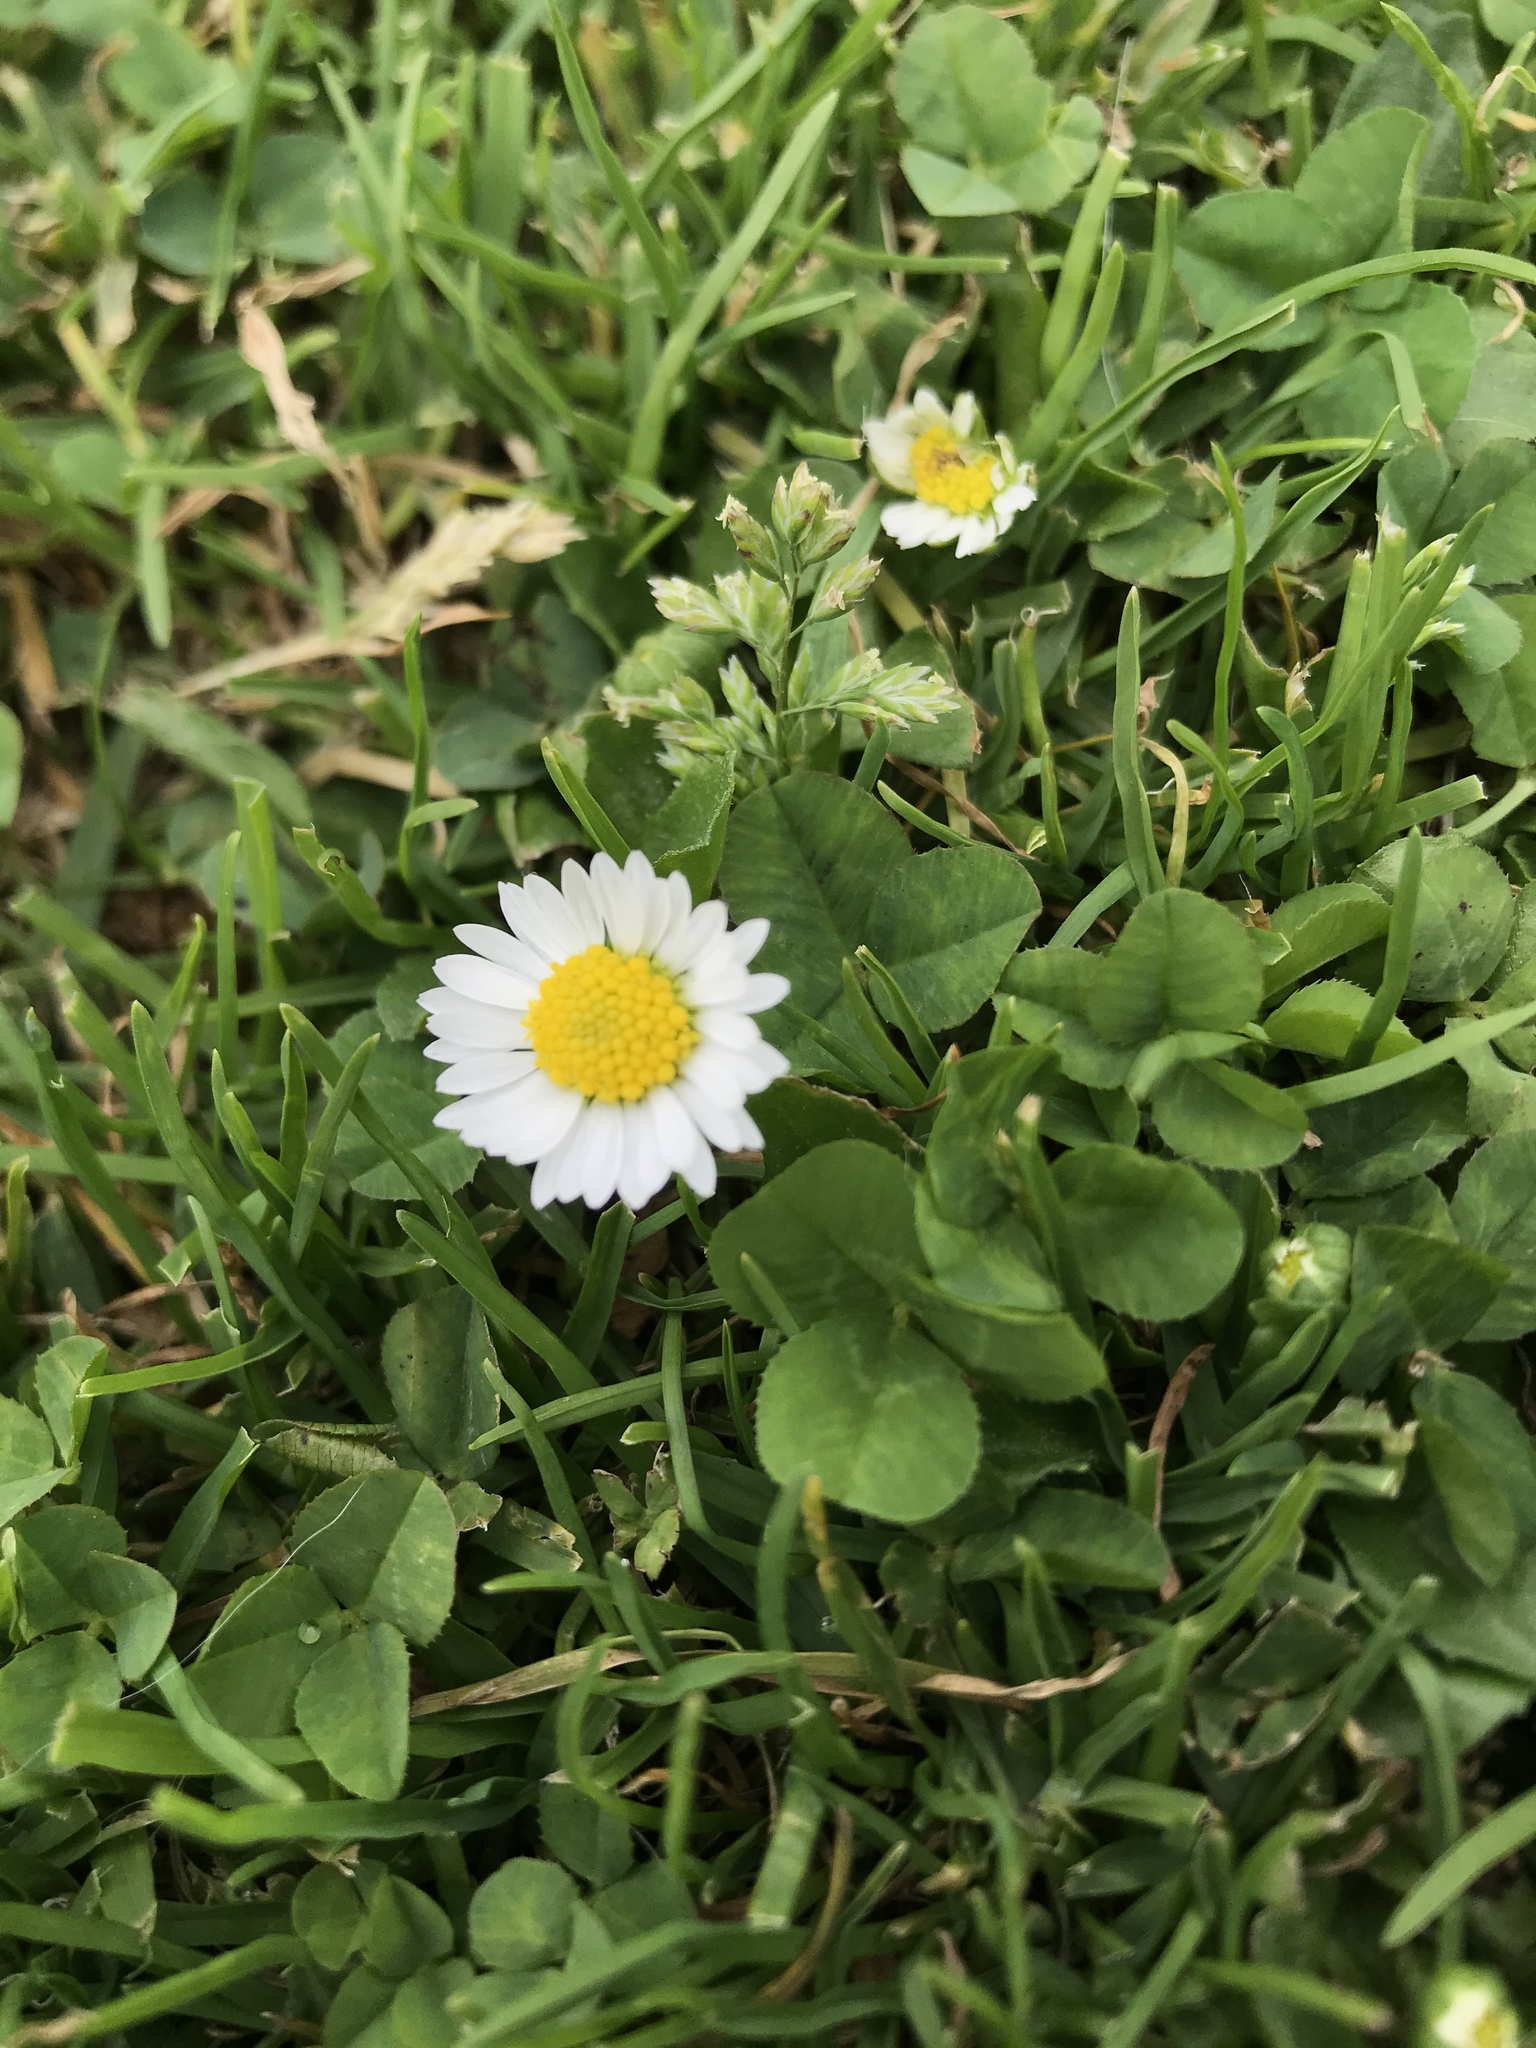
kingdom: Plantae
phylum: Tracheophyta
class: Magnoliopsida
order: Asterales
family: Asteraceae
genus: Bellis
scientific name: Bellis perennis
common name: Lawndaisy
